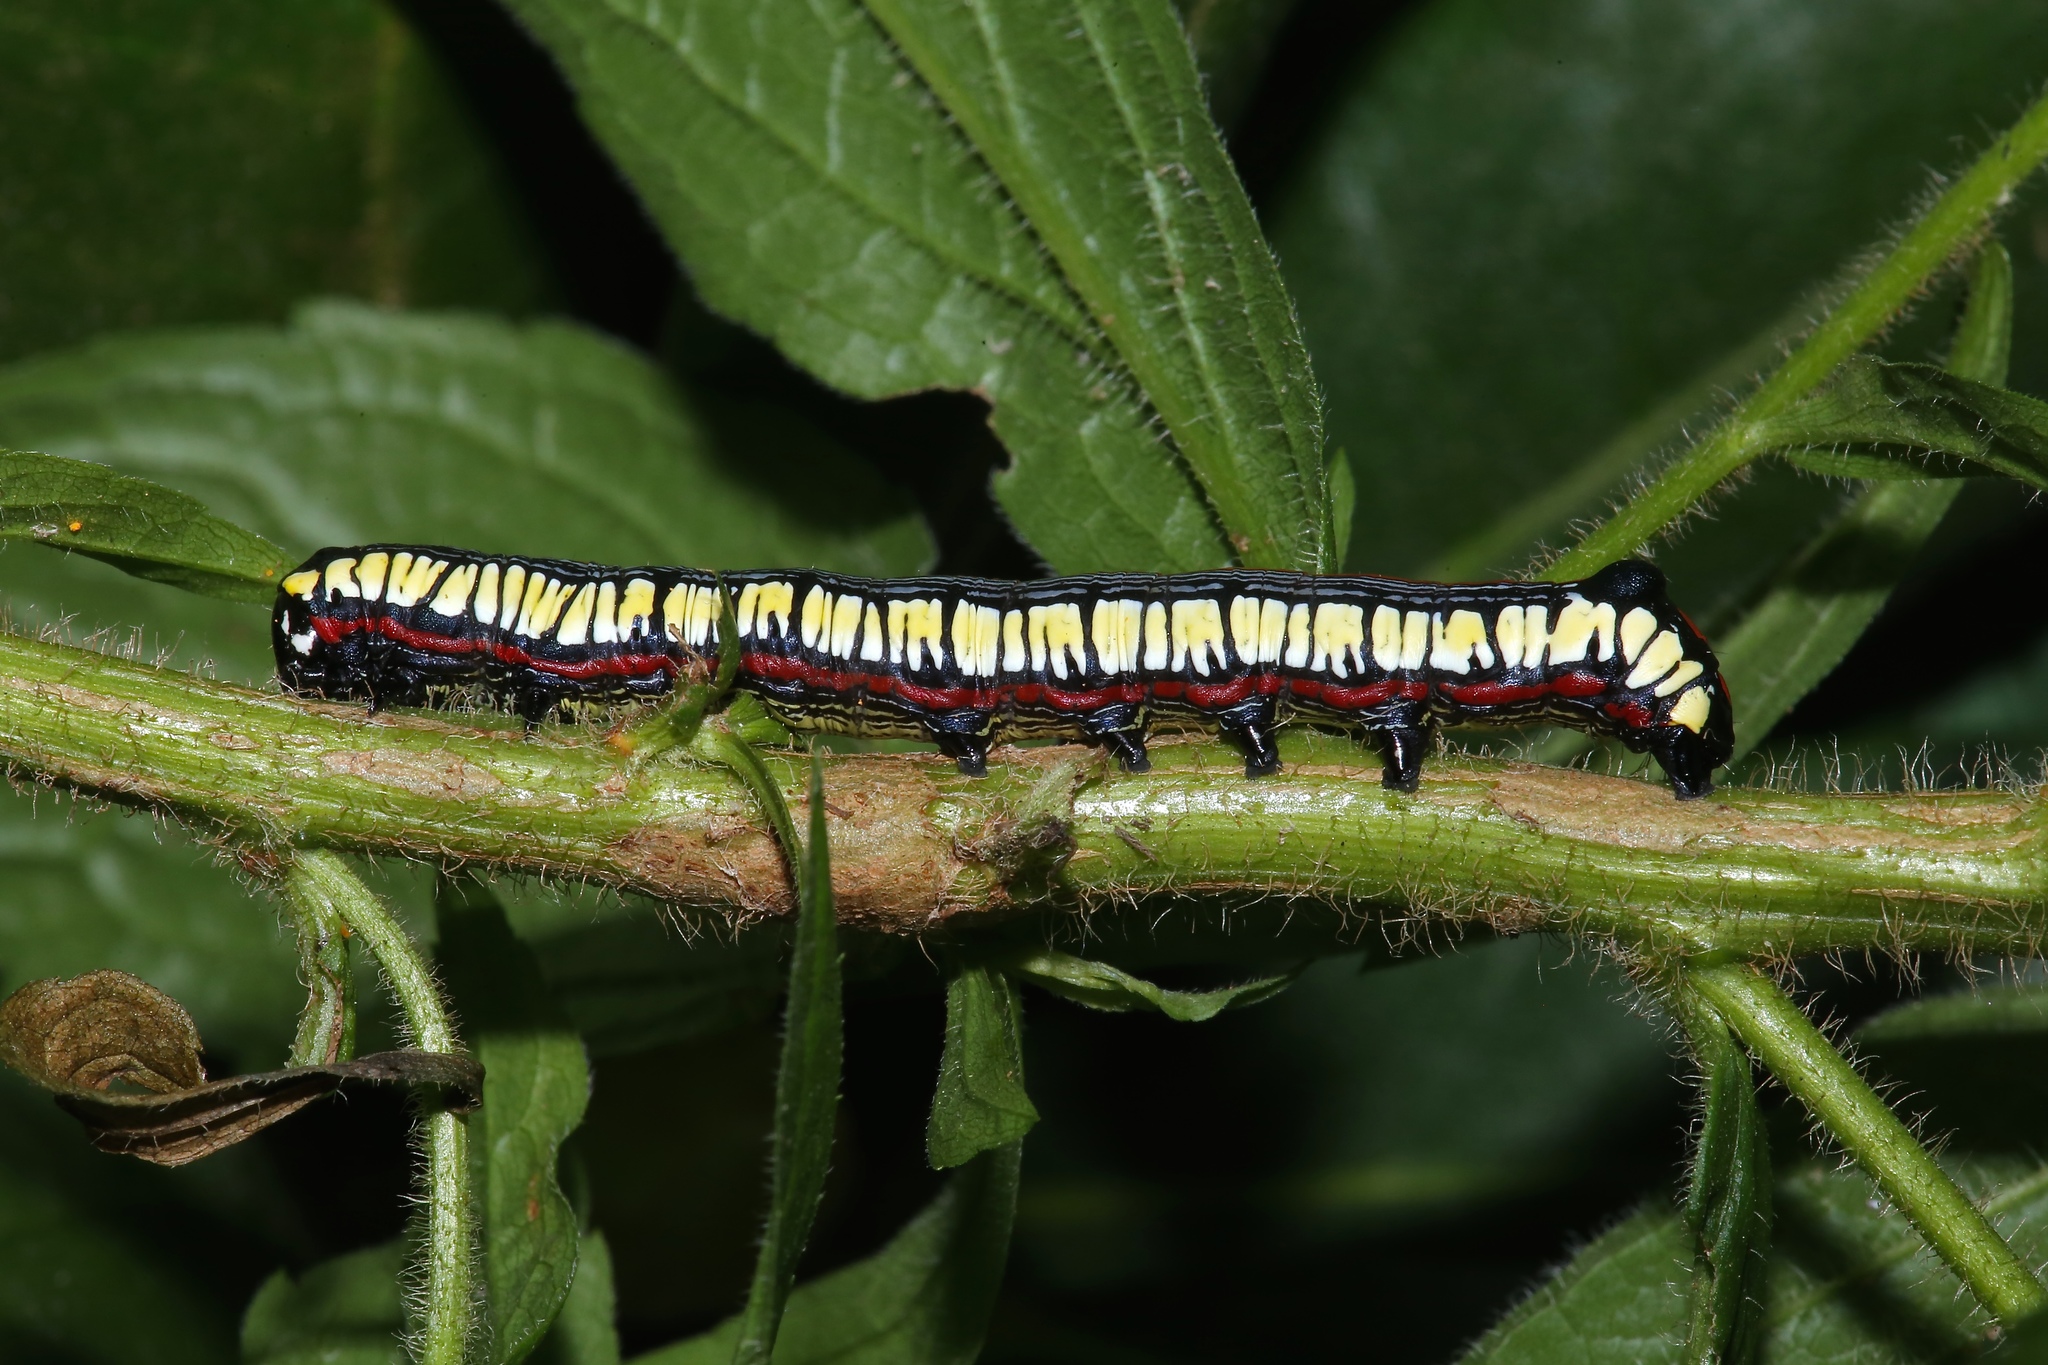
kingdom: Animalia
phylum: Arthropoda
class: Insecta
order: Lepidoptera
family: Noctuidae
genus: Cucullia
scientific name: Cucullia convexipennis
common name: Brown-hooded owlet
